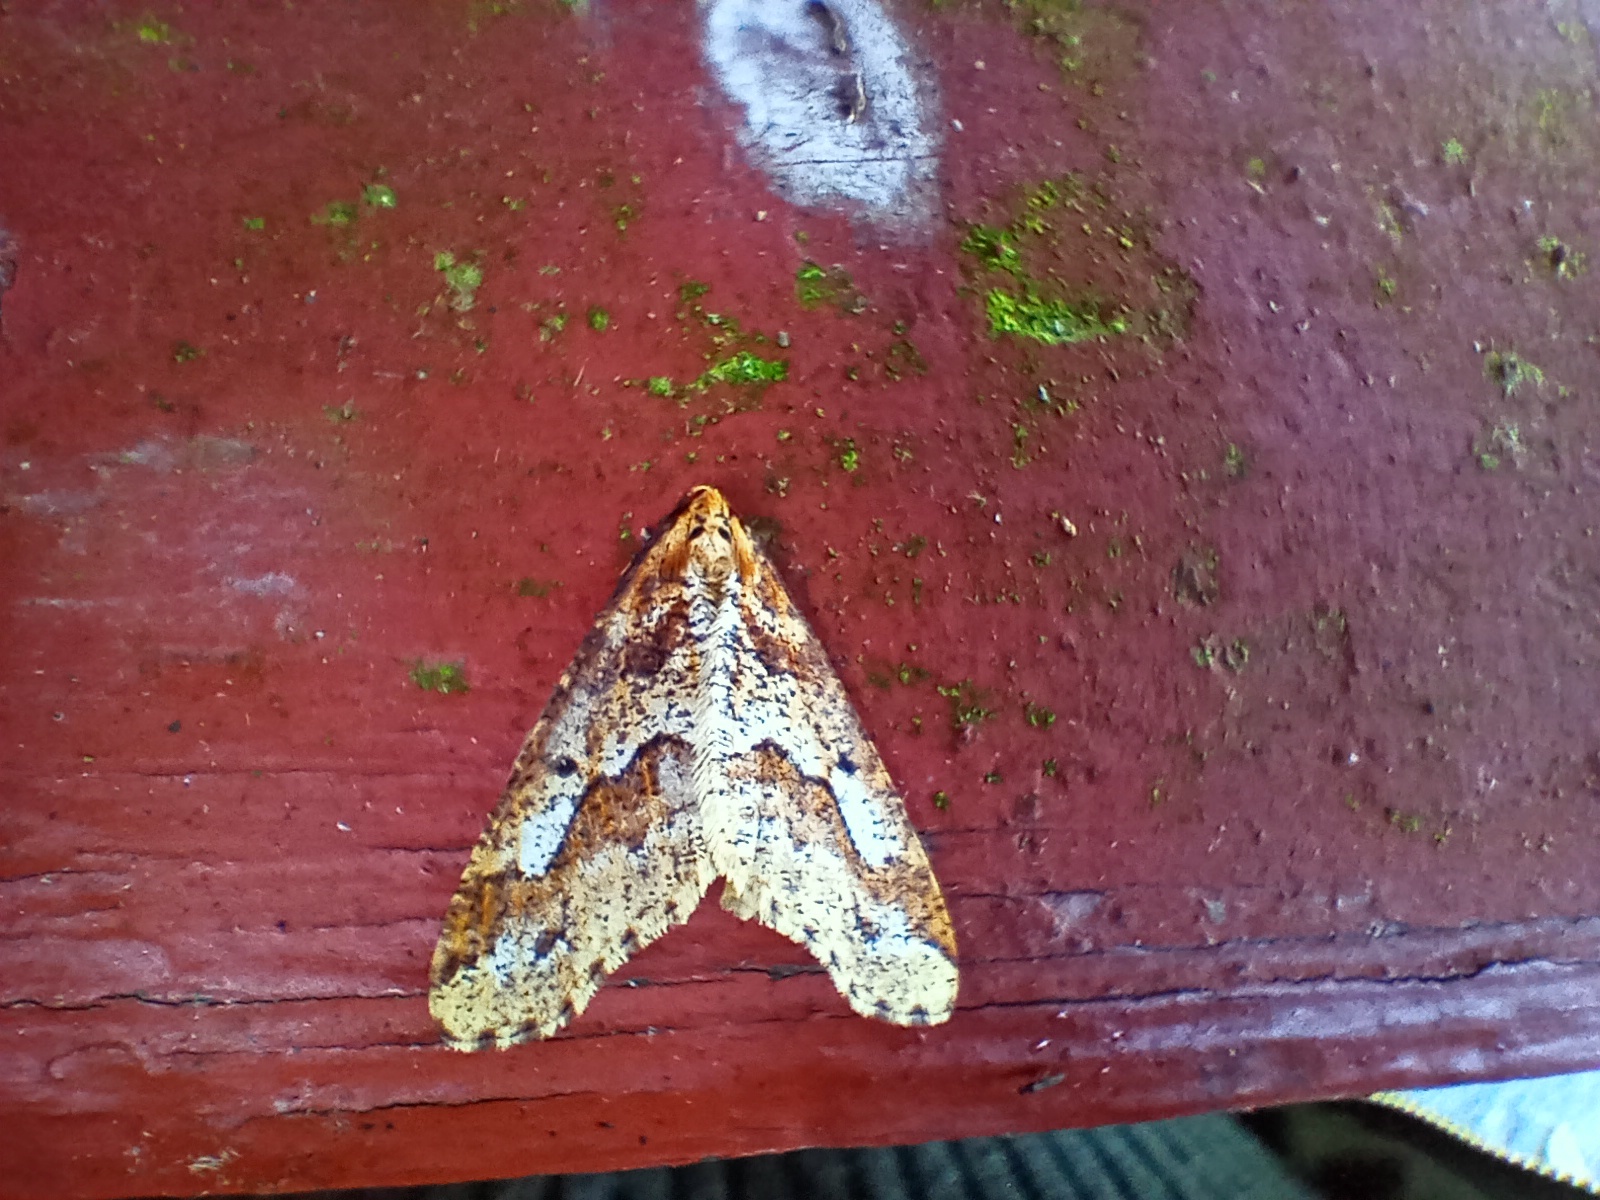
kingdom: Animalia
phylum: Arthropoda
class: Insecta
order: Lepidoptera
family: Geometridae
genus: Erannis
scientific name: Erannis defoliaria
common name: Mottled umber
